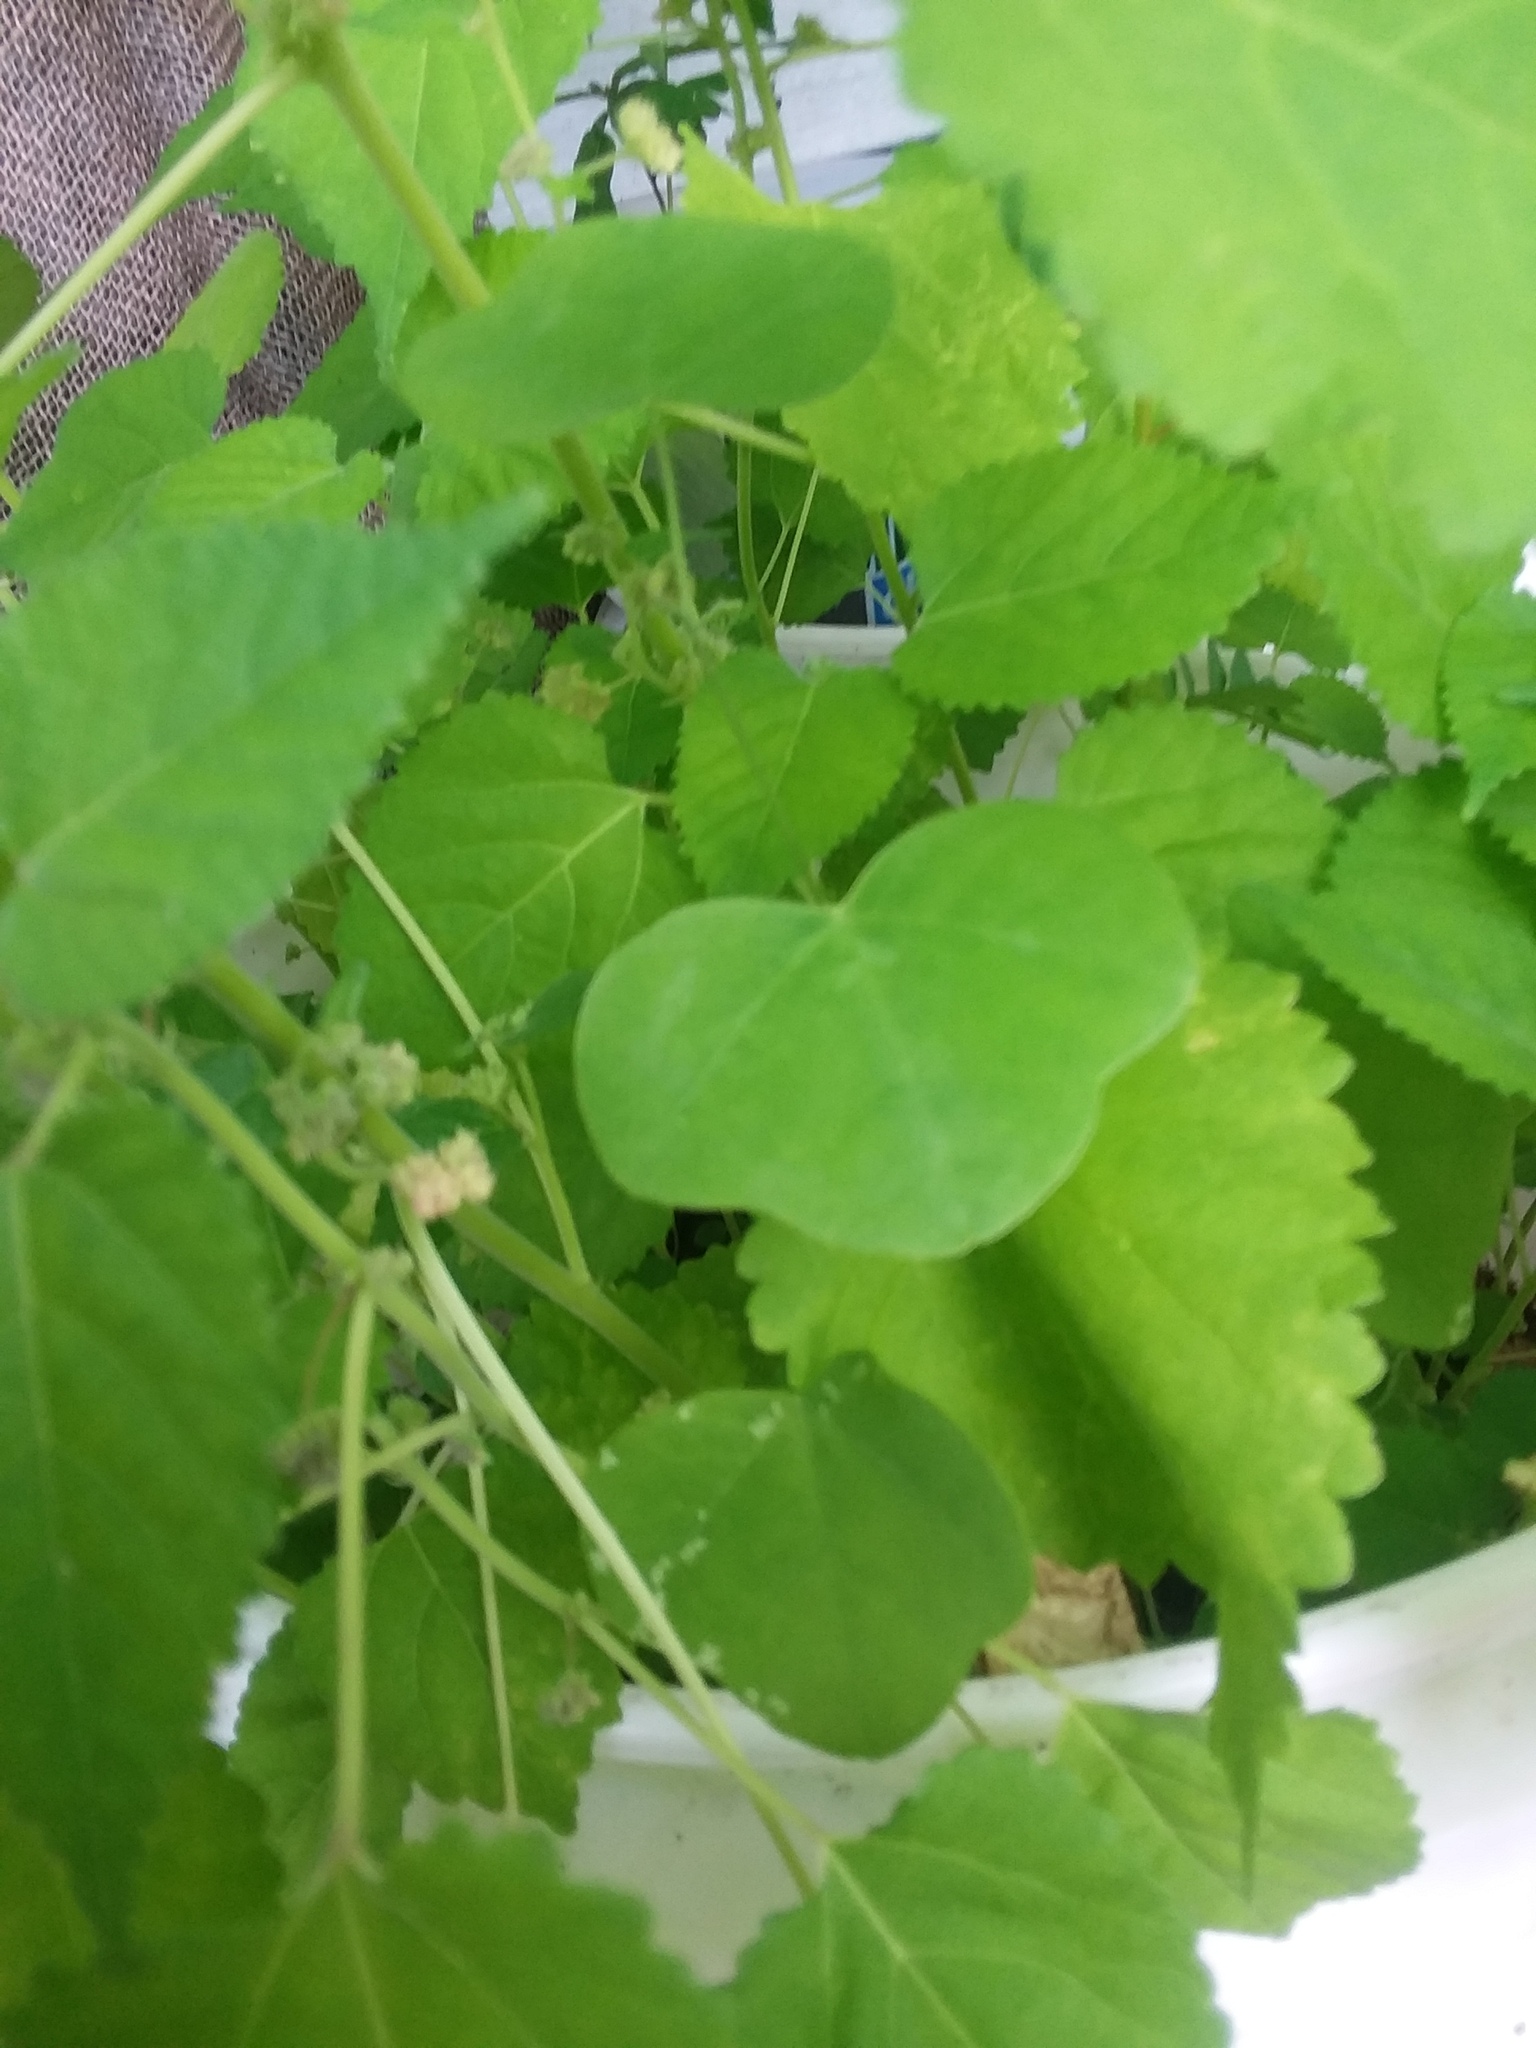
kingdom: Plantae
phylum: Tracheophyta
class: Magnoliopsida
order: Malpighiales
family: Passifloraceae
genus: Passiflora
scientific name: Passiflora lutea
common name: Yellow passionflower
